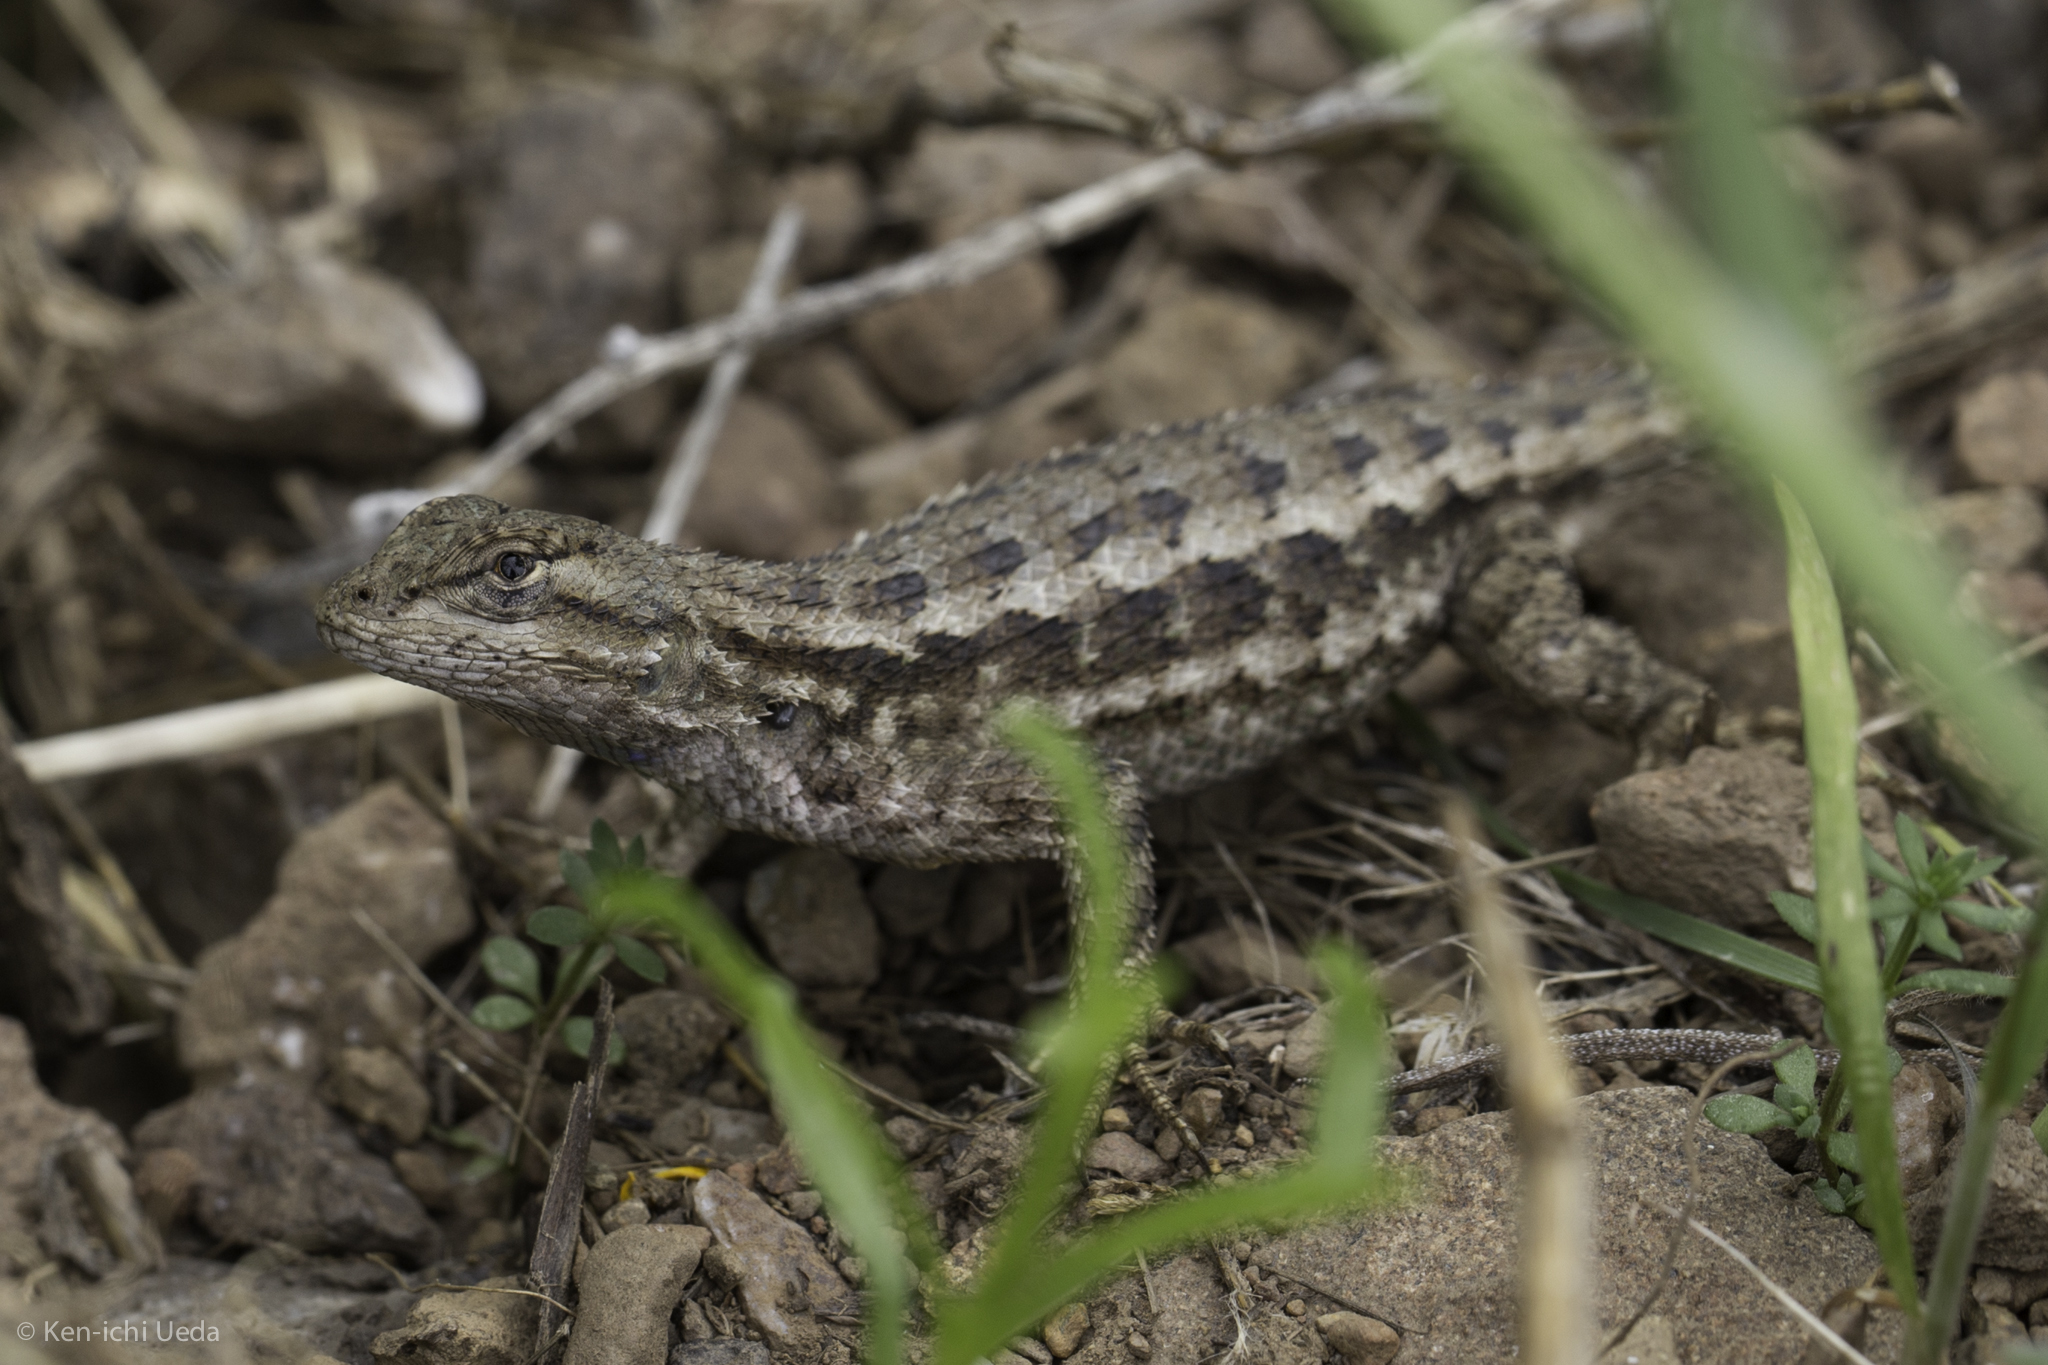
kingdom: Animalia
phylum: Chordata
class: Squamata
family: Phrynosomatidae
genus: Sceloporus
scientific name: Sceloporus occidentalis
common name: Western fence lizard
